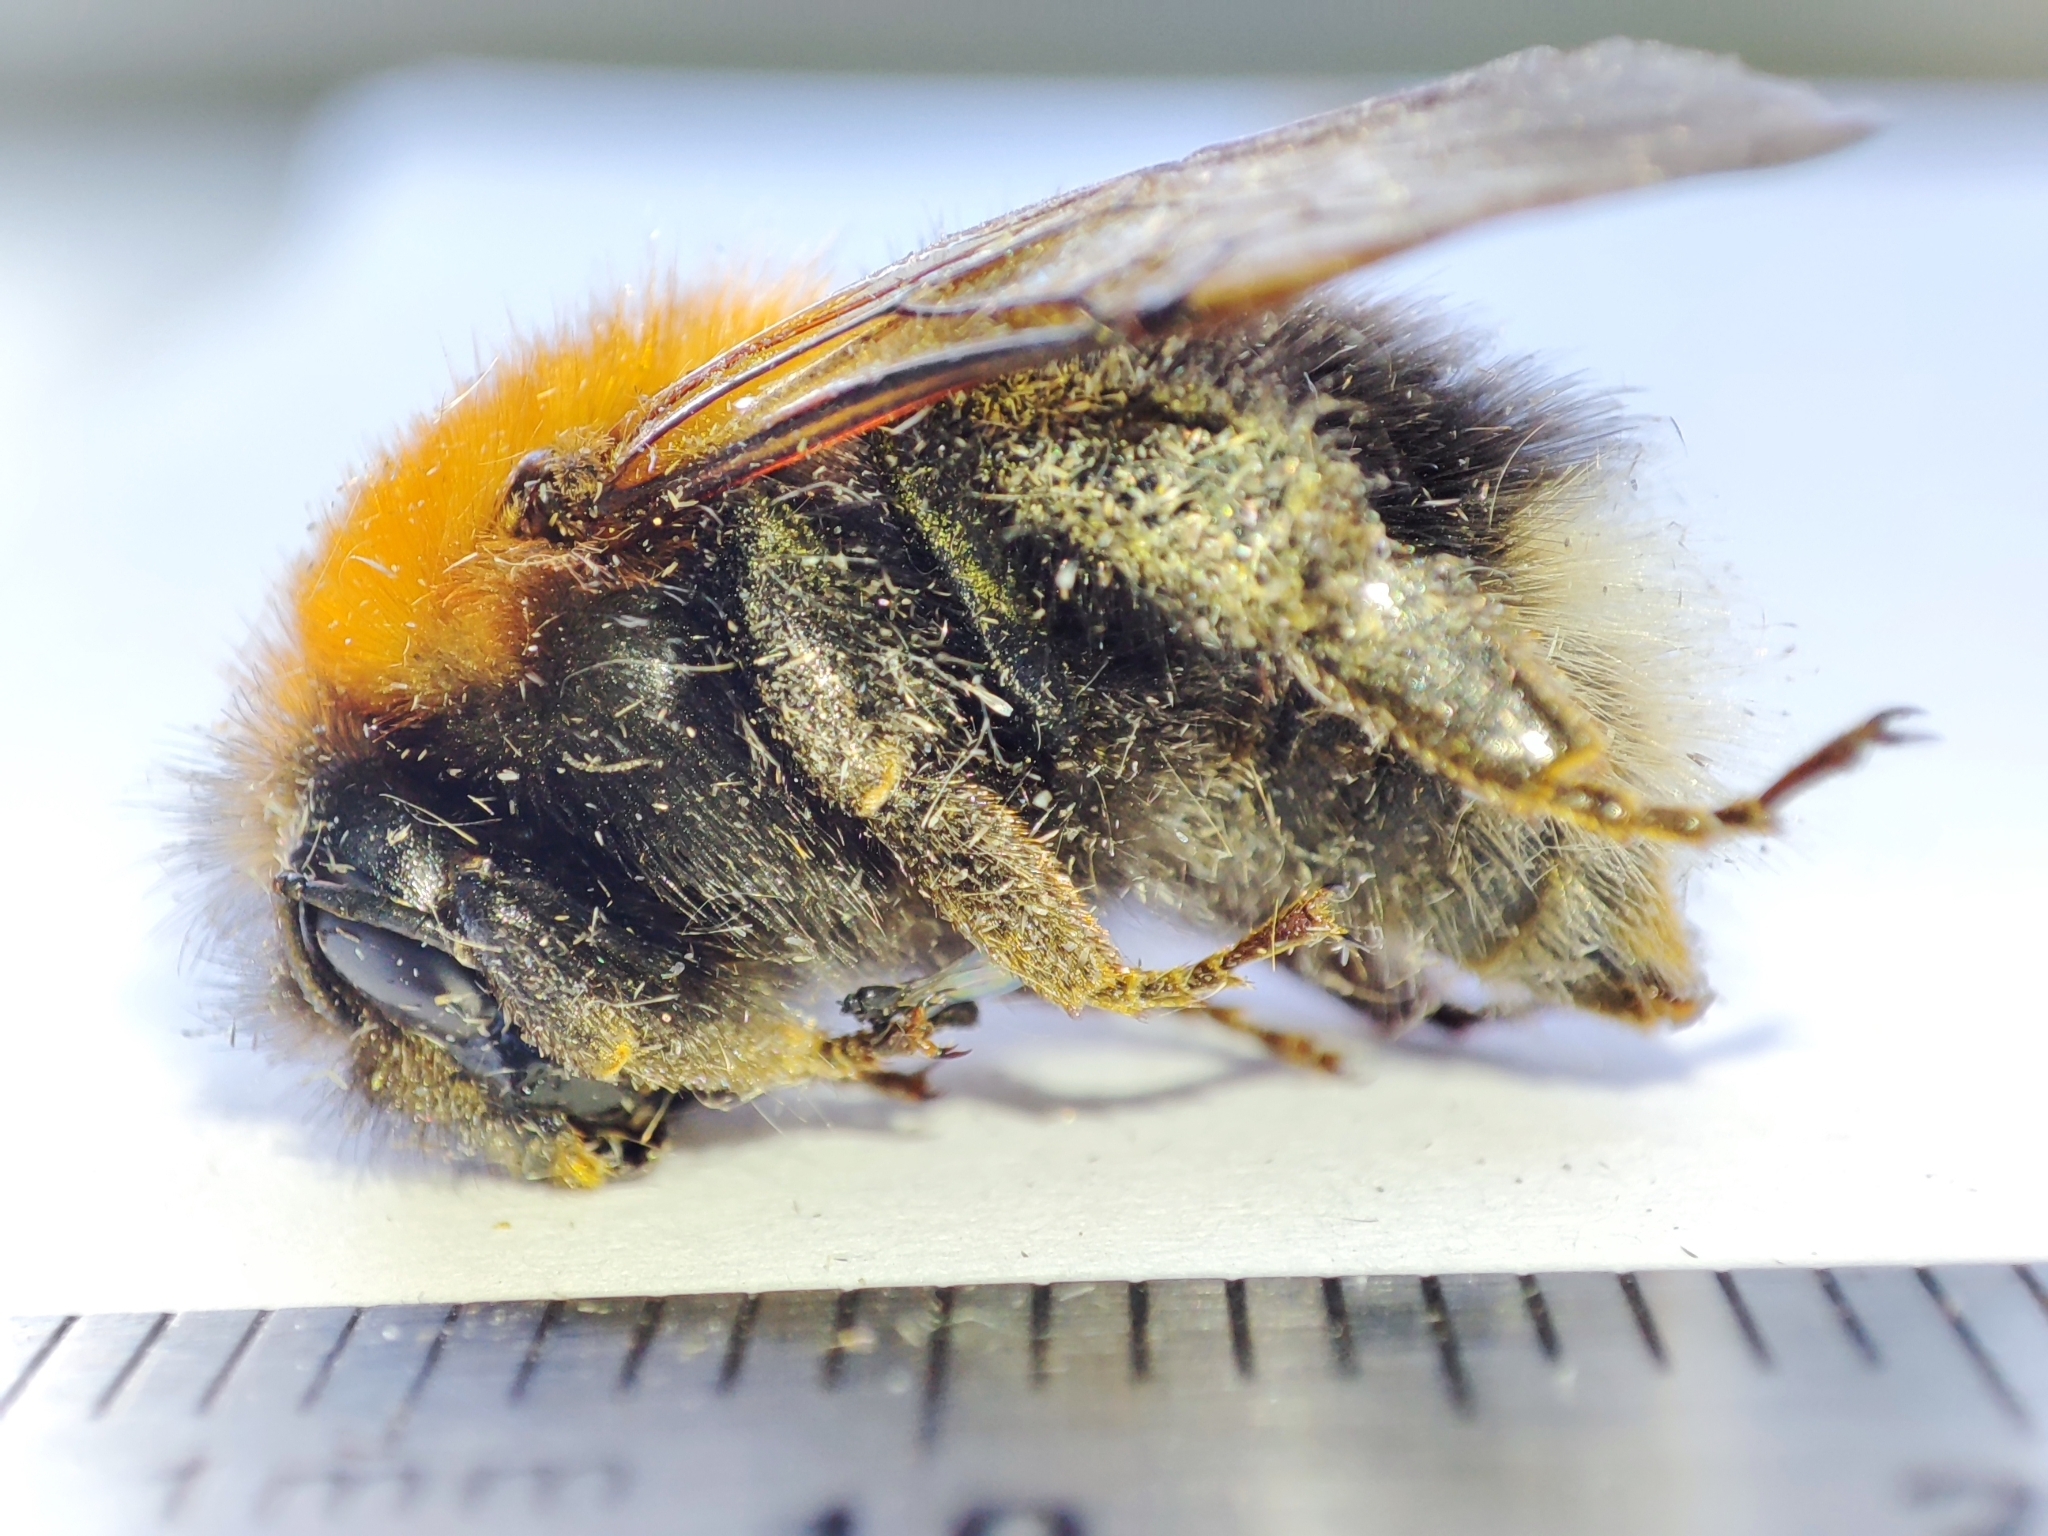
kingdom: Animalia
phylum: Arthropoda
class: Insecta
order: Hymenoptera
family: Apidae
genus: Bombus
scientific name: Bombus hypnorum
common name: New garden bumblebee
